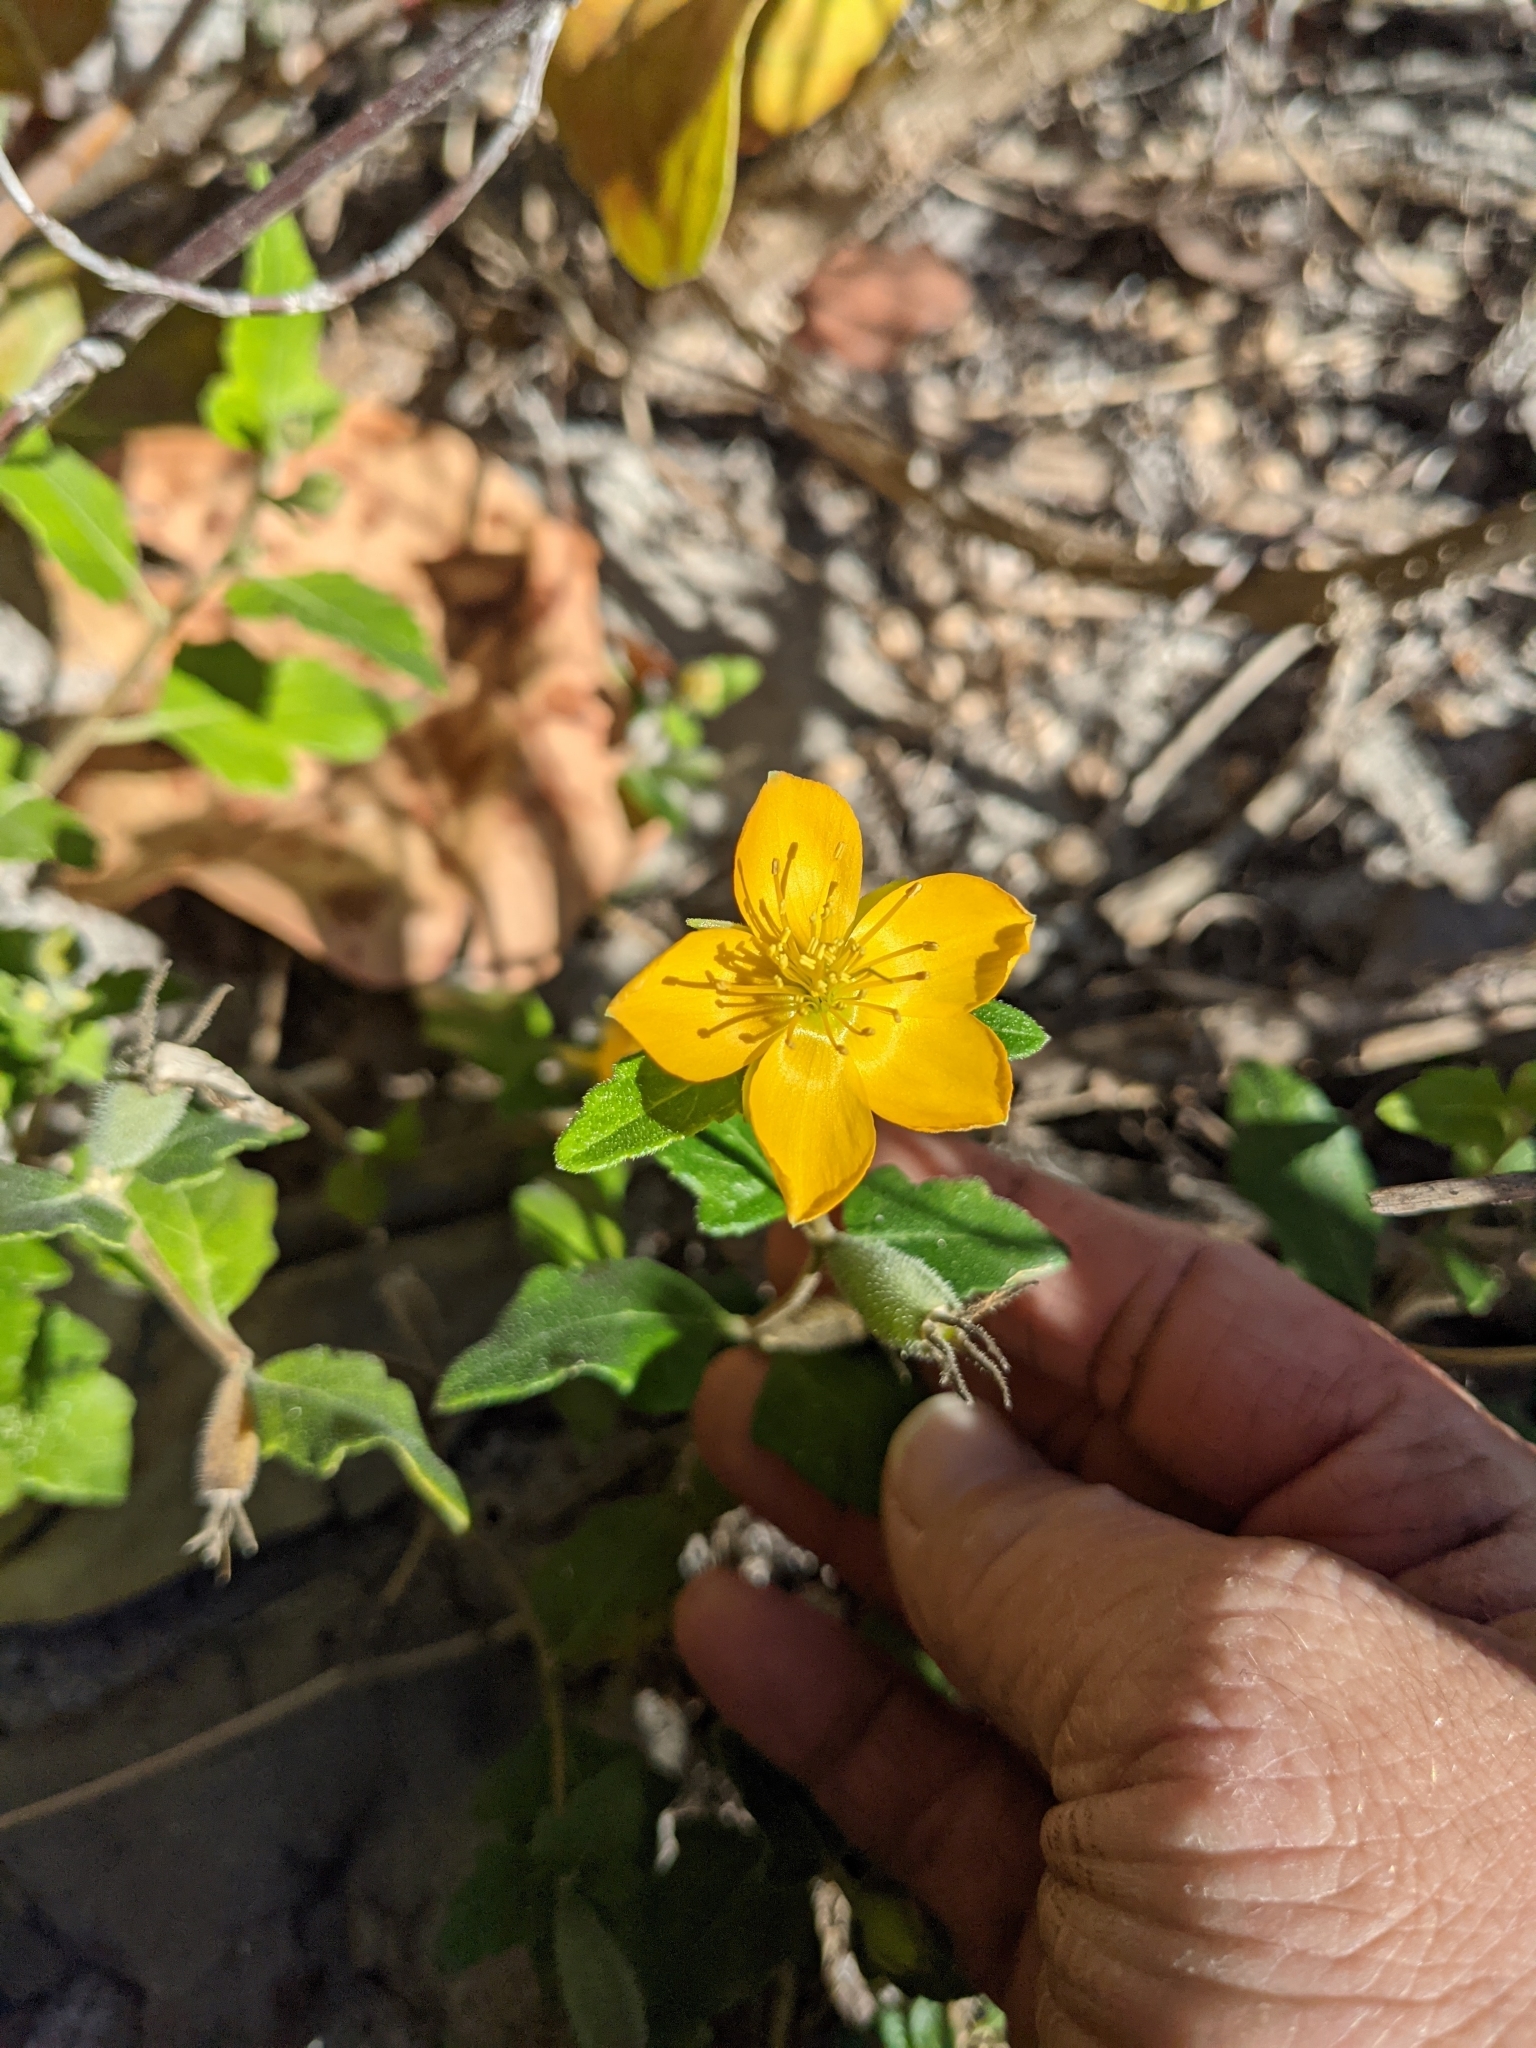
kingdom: Plantae
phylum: Tracheophyta
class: Magnoliopsida
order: Cornales
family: Loasaceae
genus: Mentzelia
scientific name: Mentzelia floridana
